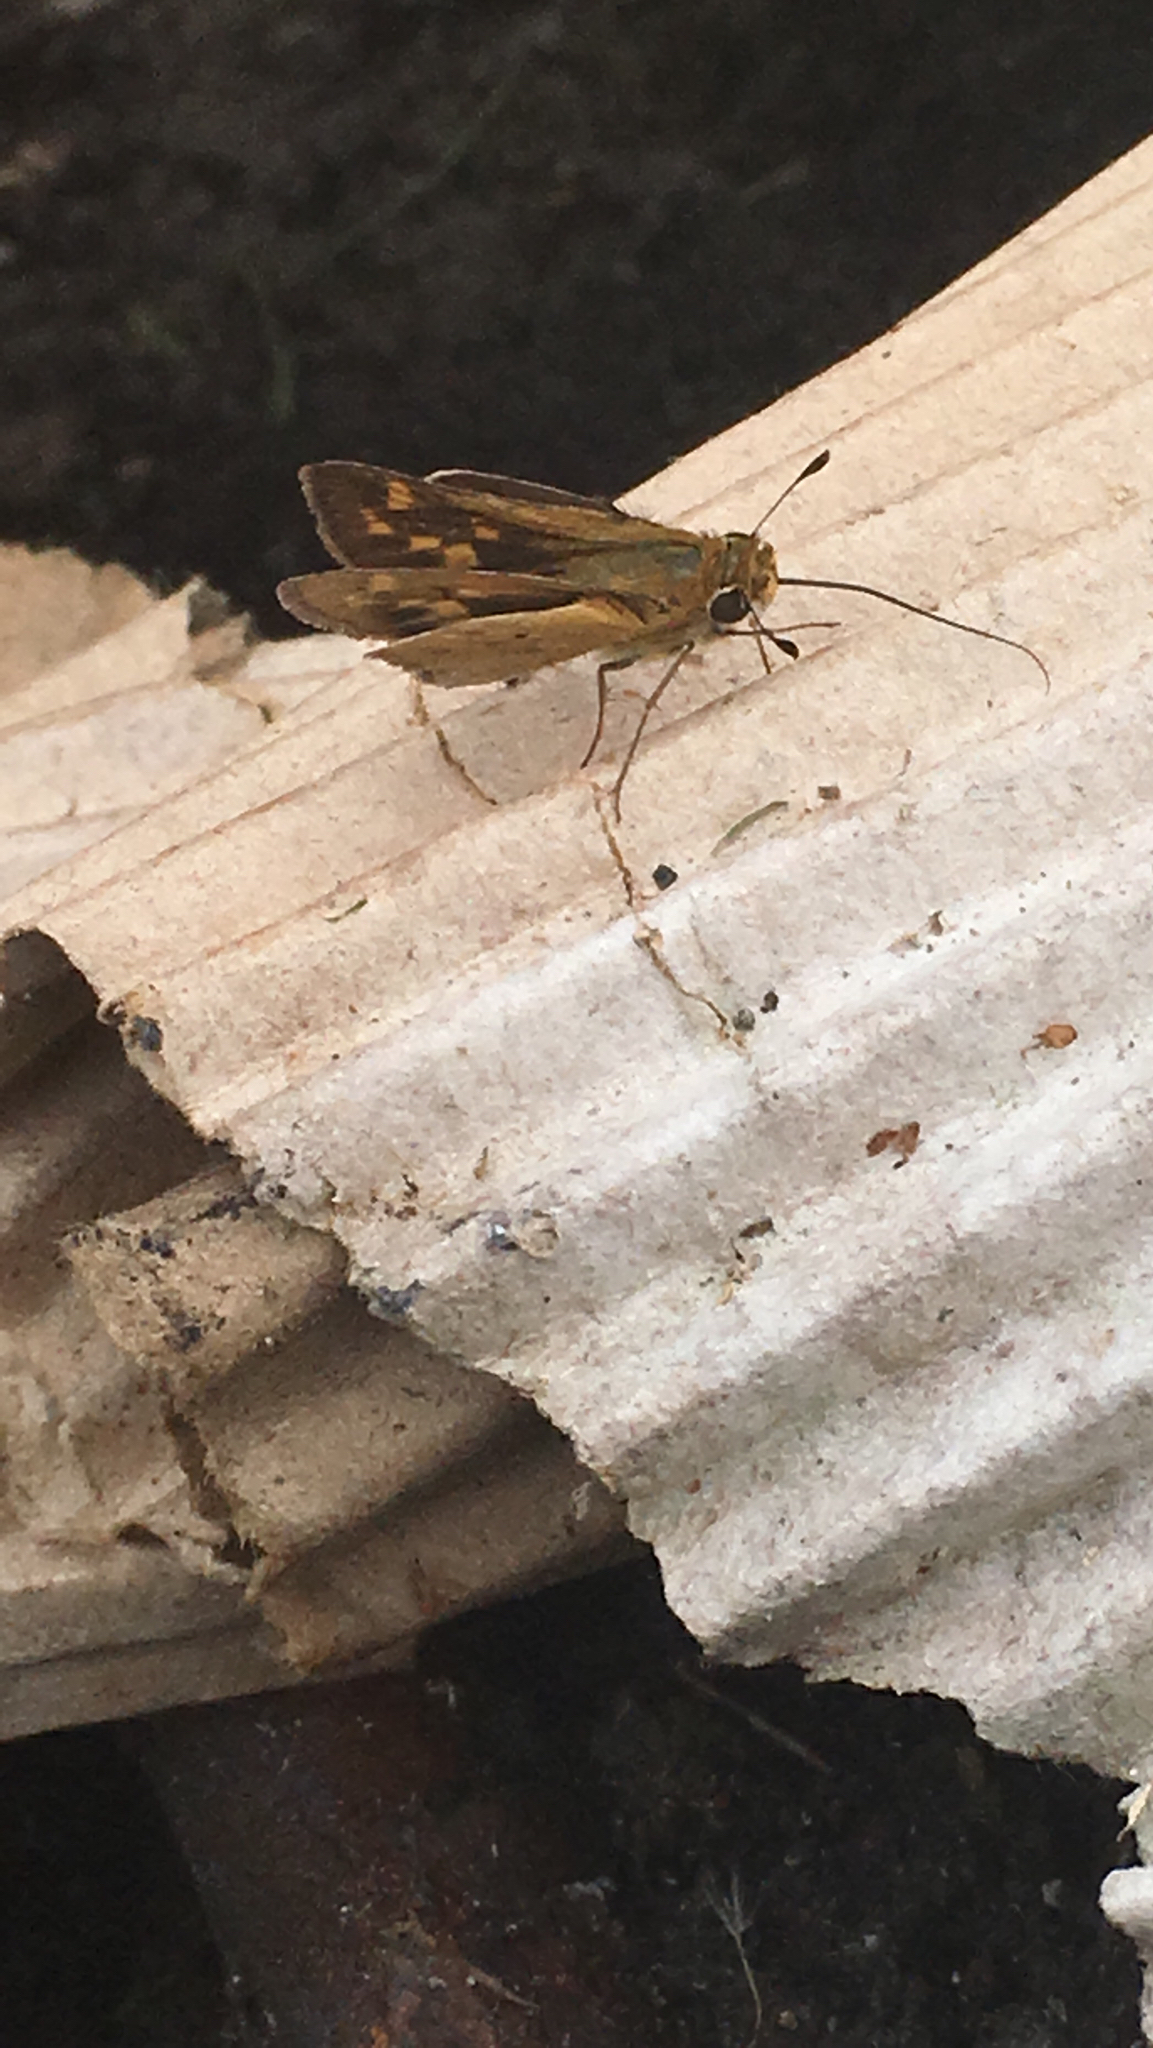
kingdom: Animalia
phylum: Arthropoda
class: Insecta
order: Lepidoptera
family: Hesperiidae
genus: Hylephila
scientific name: Hylephila phyleus
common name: Fiery skipper
